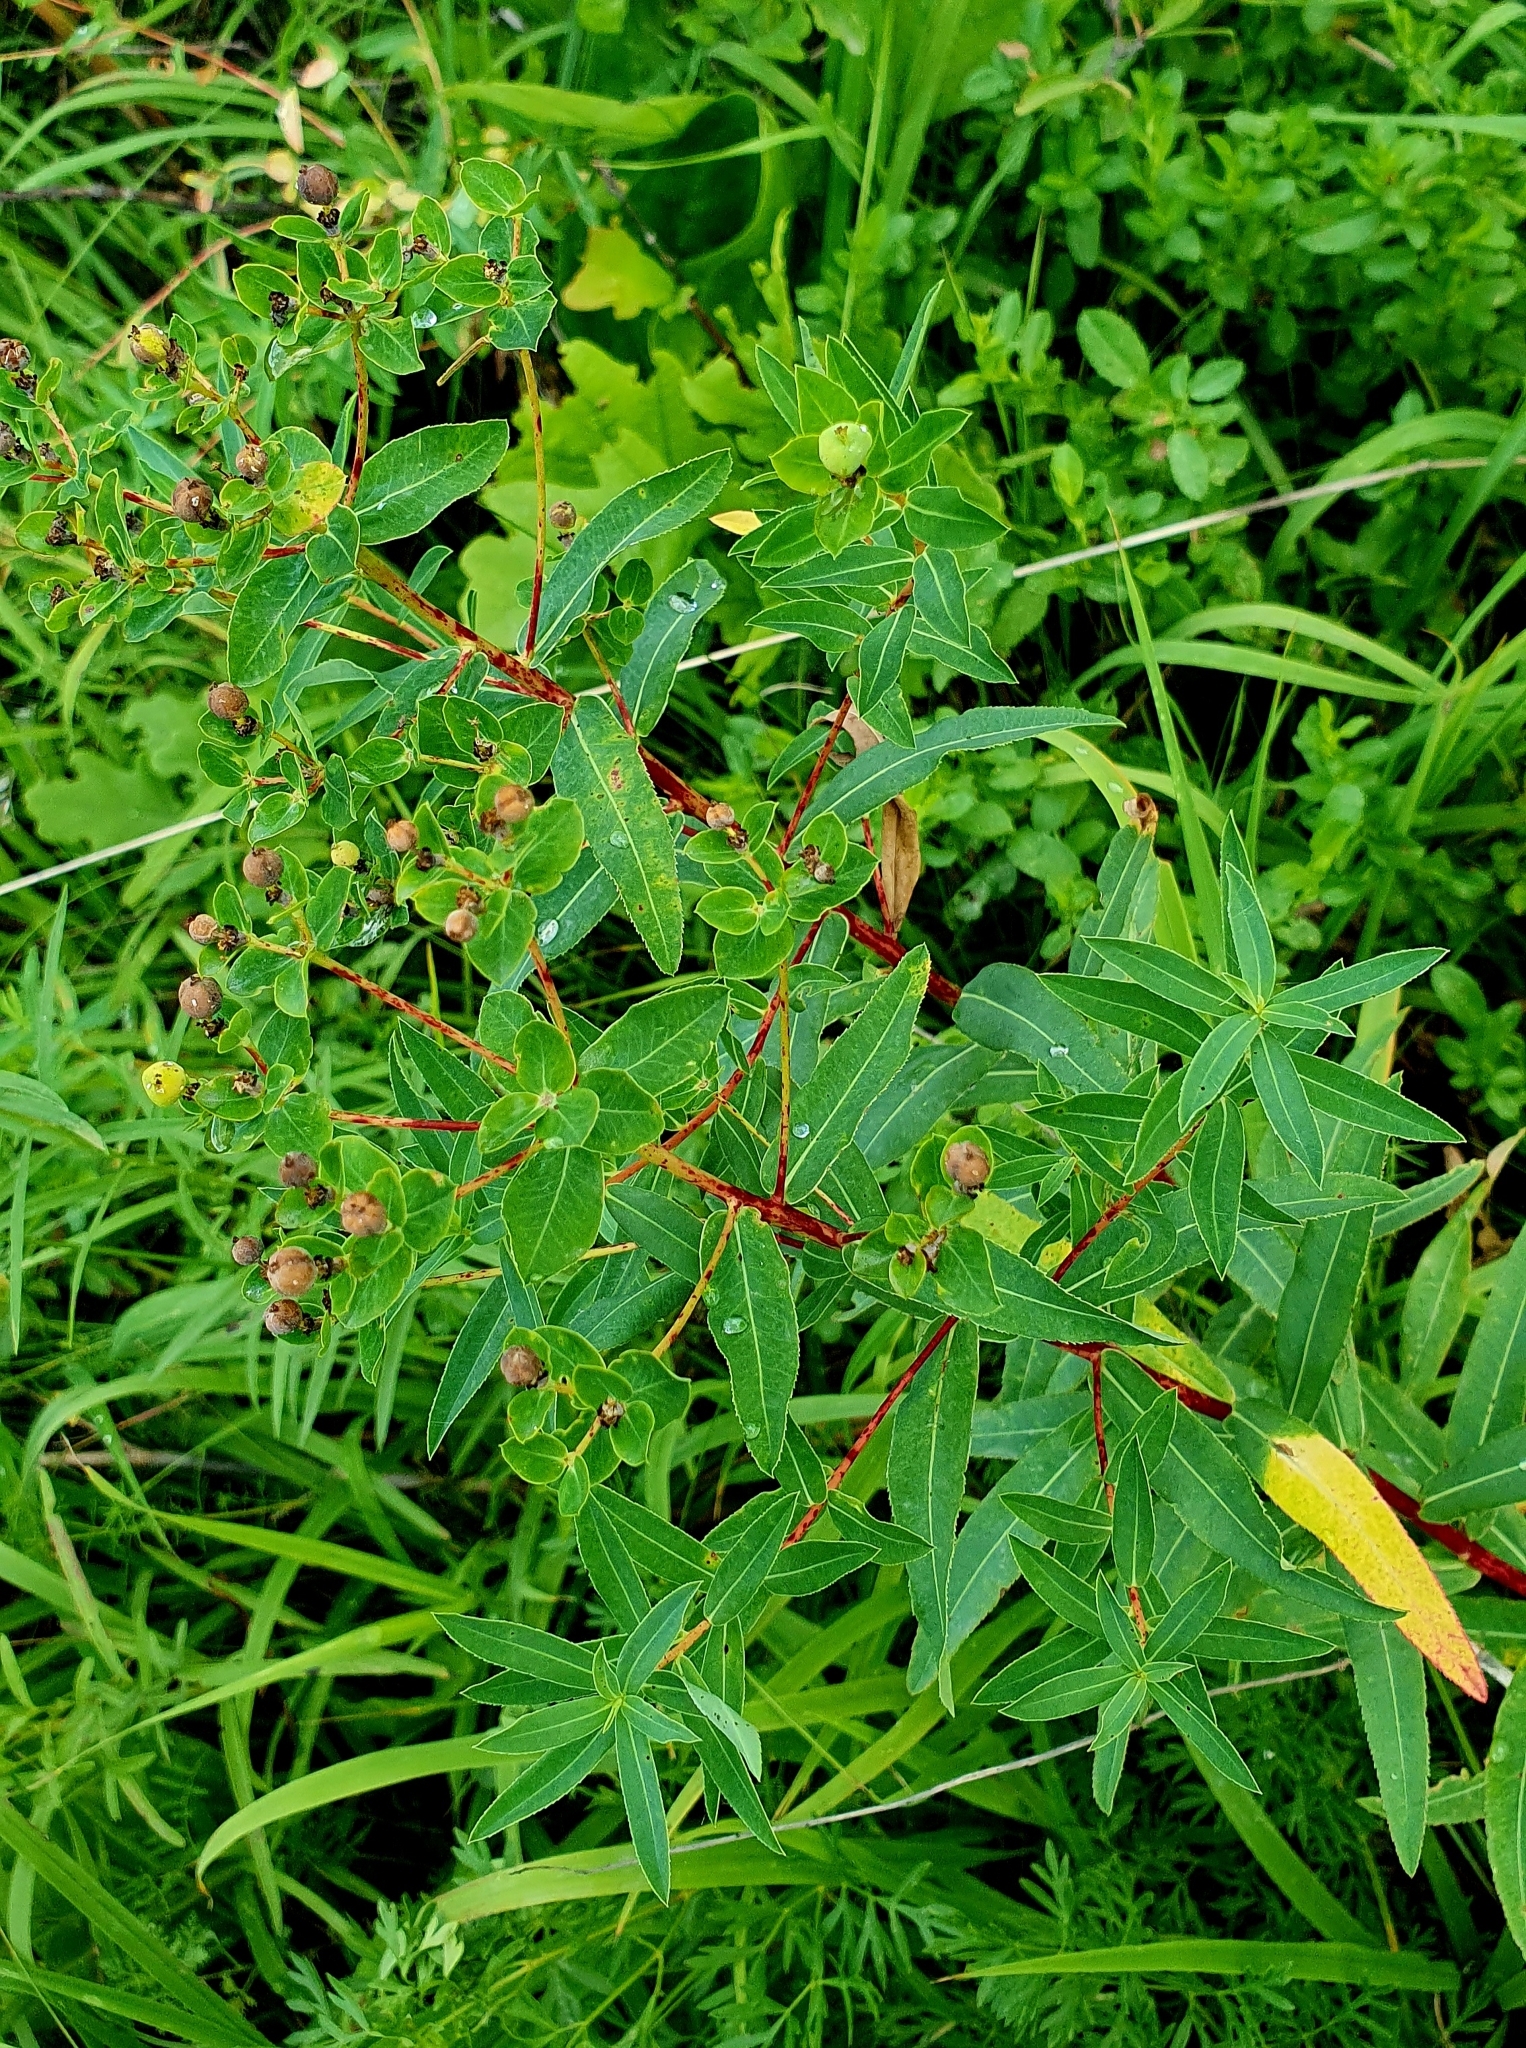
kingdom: Plantae
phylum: Tracheophyta
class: Magnoliopsida
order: Malpighiales
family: Euphorbiaceae
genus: Euphorbia
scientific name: Euphorbia semivillosa
